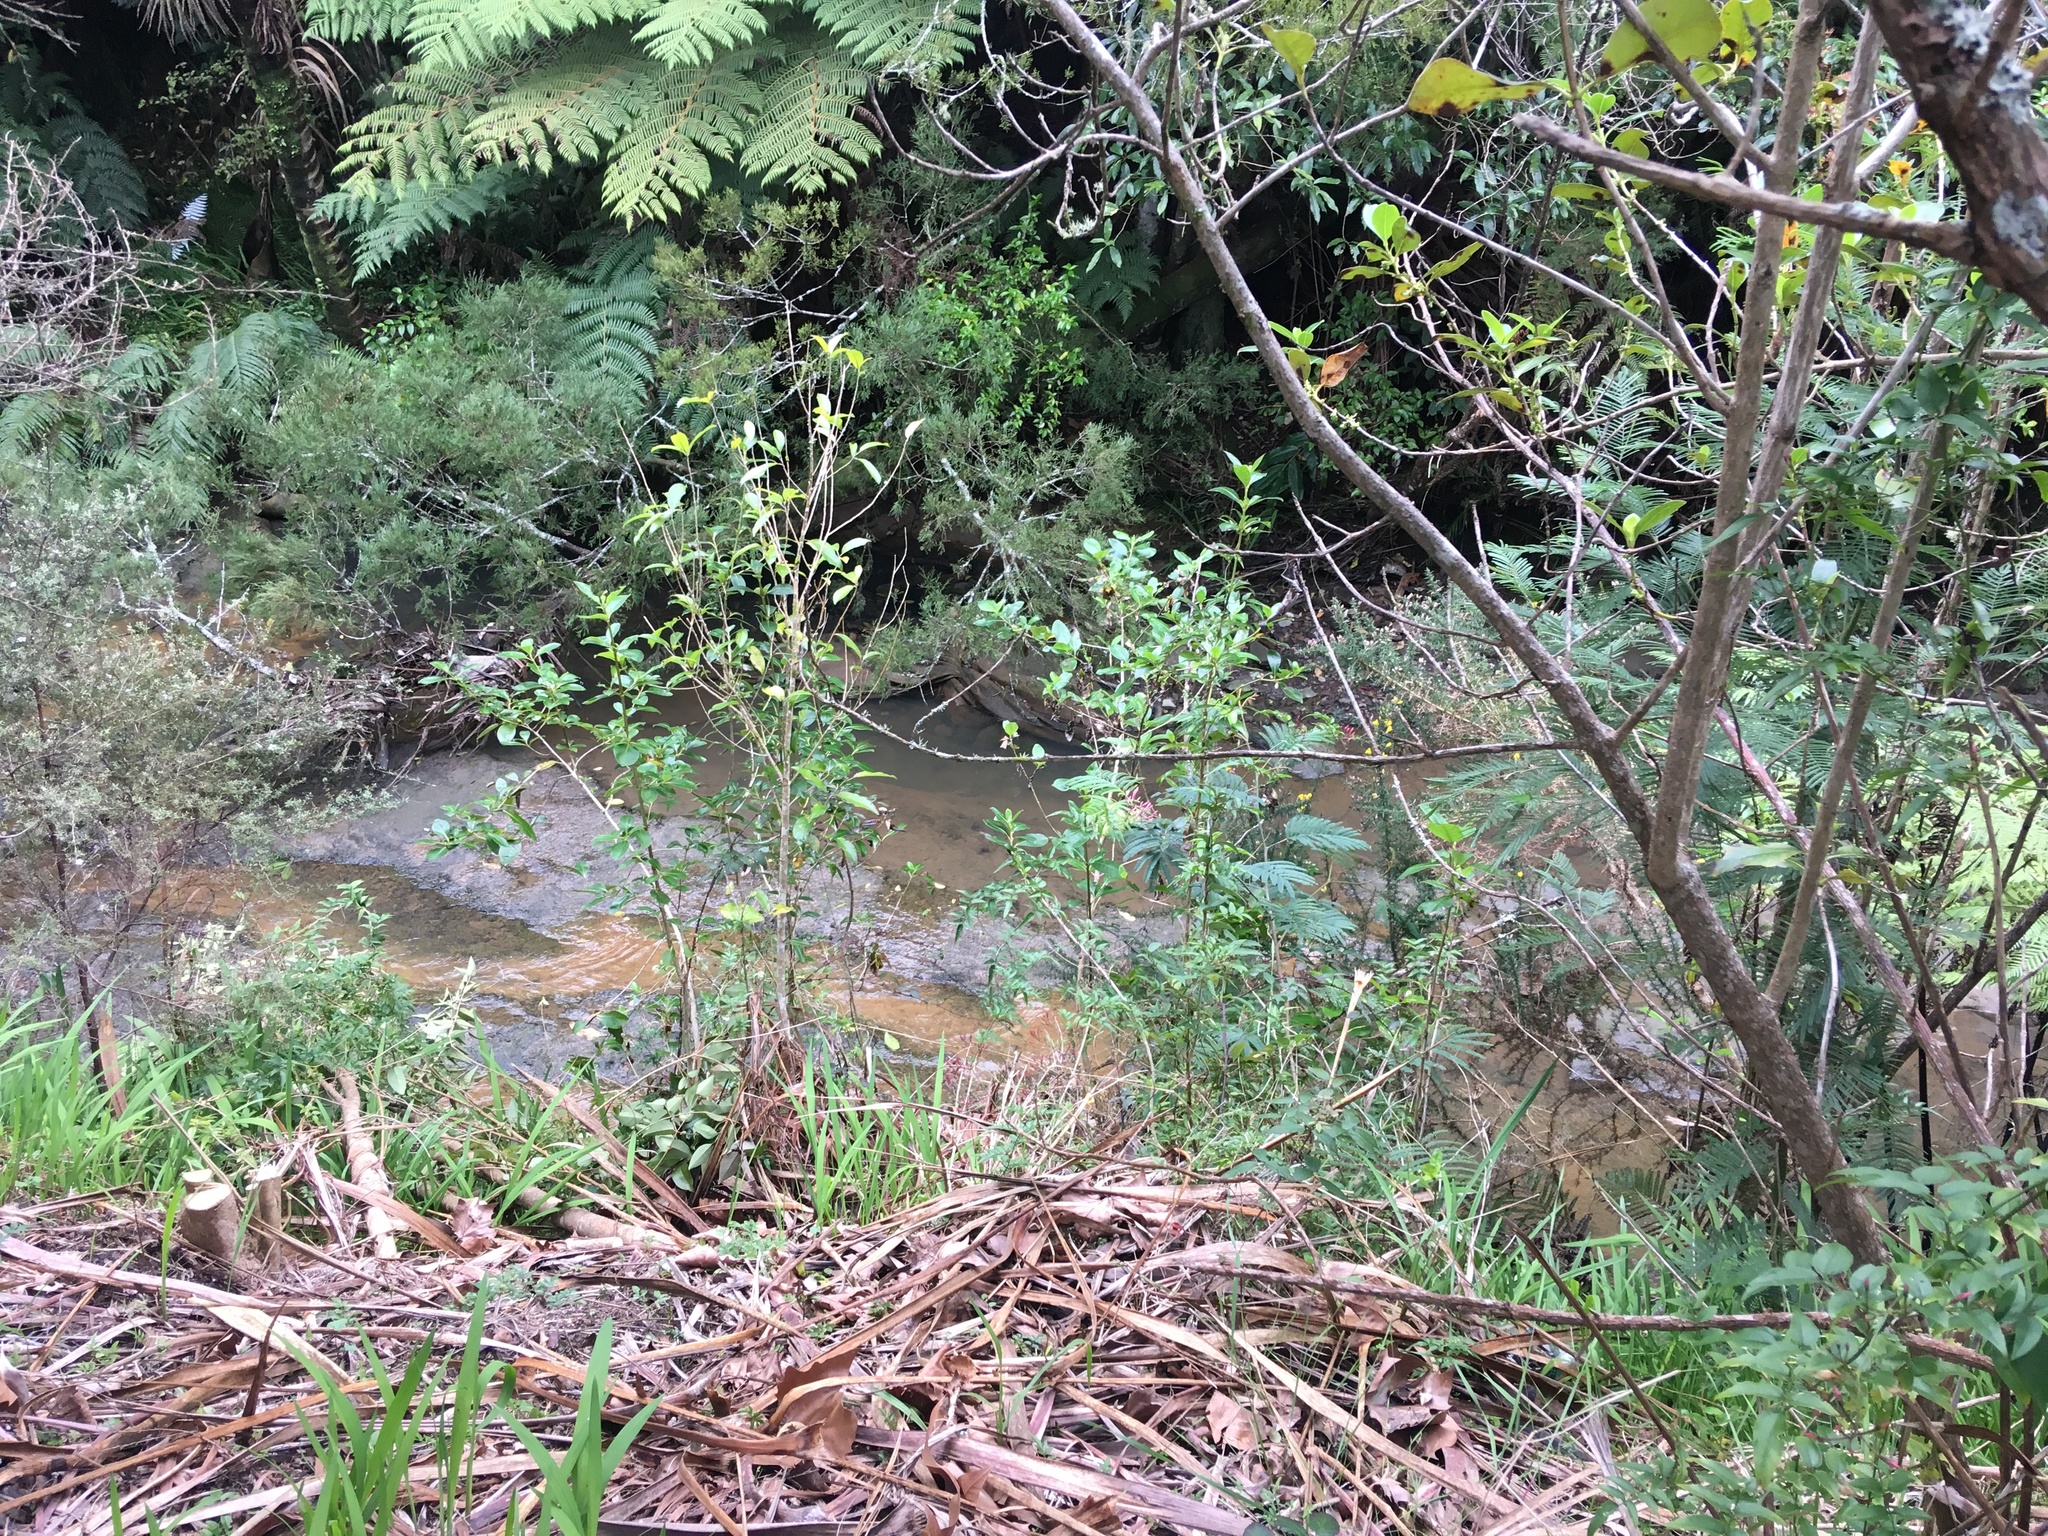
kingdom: Plantae
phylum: Tracheophyta
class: Magnoliopsida
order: Lamiales
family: Oleaceae
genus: Jasminum
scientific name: Jasminum polyanthum
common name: Pink jasmine
